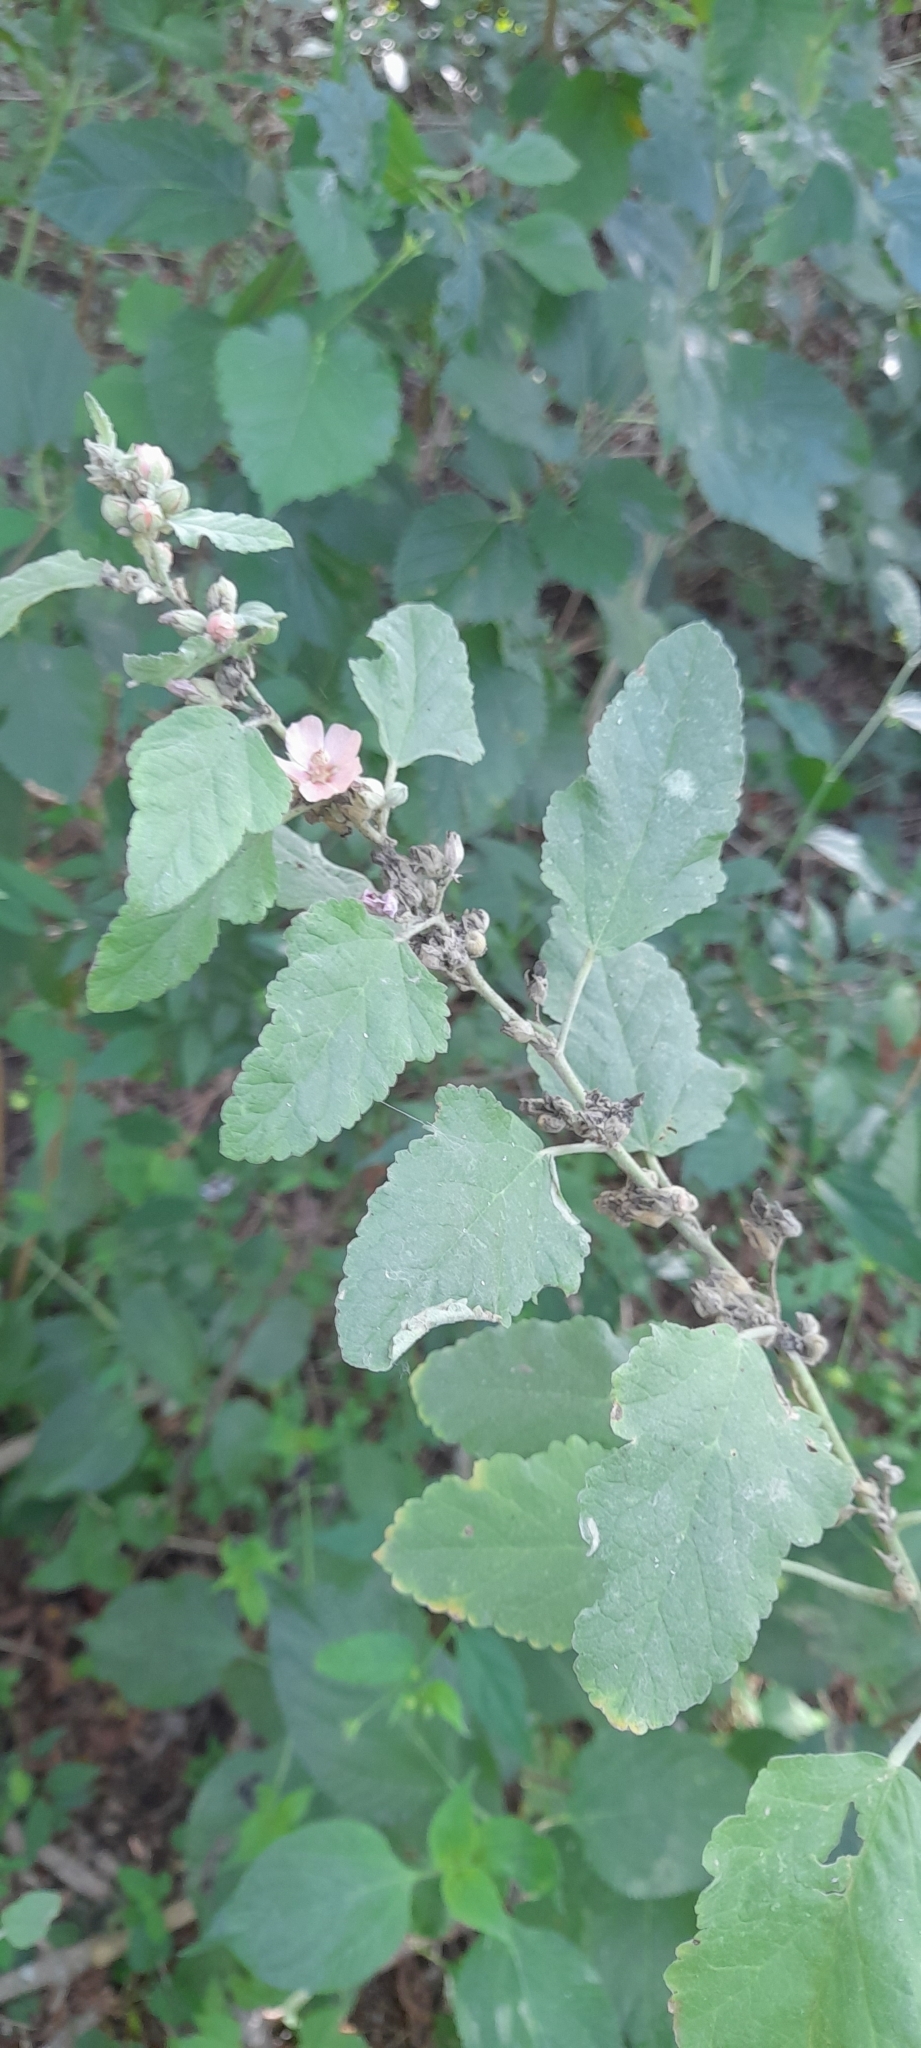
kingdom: Plantae
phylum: Tracheophyta
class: Magnoliopsida
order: Malvales
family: Malvaceae
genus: Sphaeralcea
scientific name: Sphaeralcea bonariensis
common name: Latin globemallow
